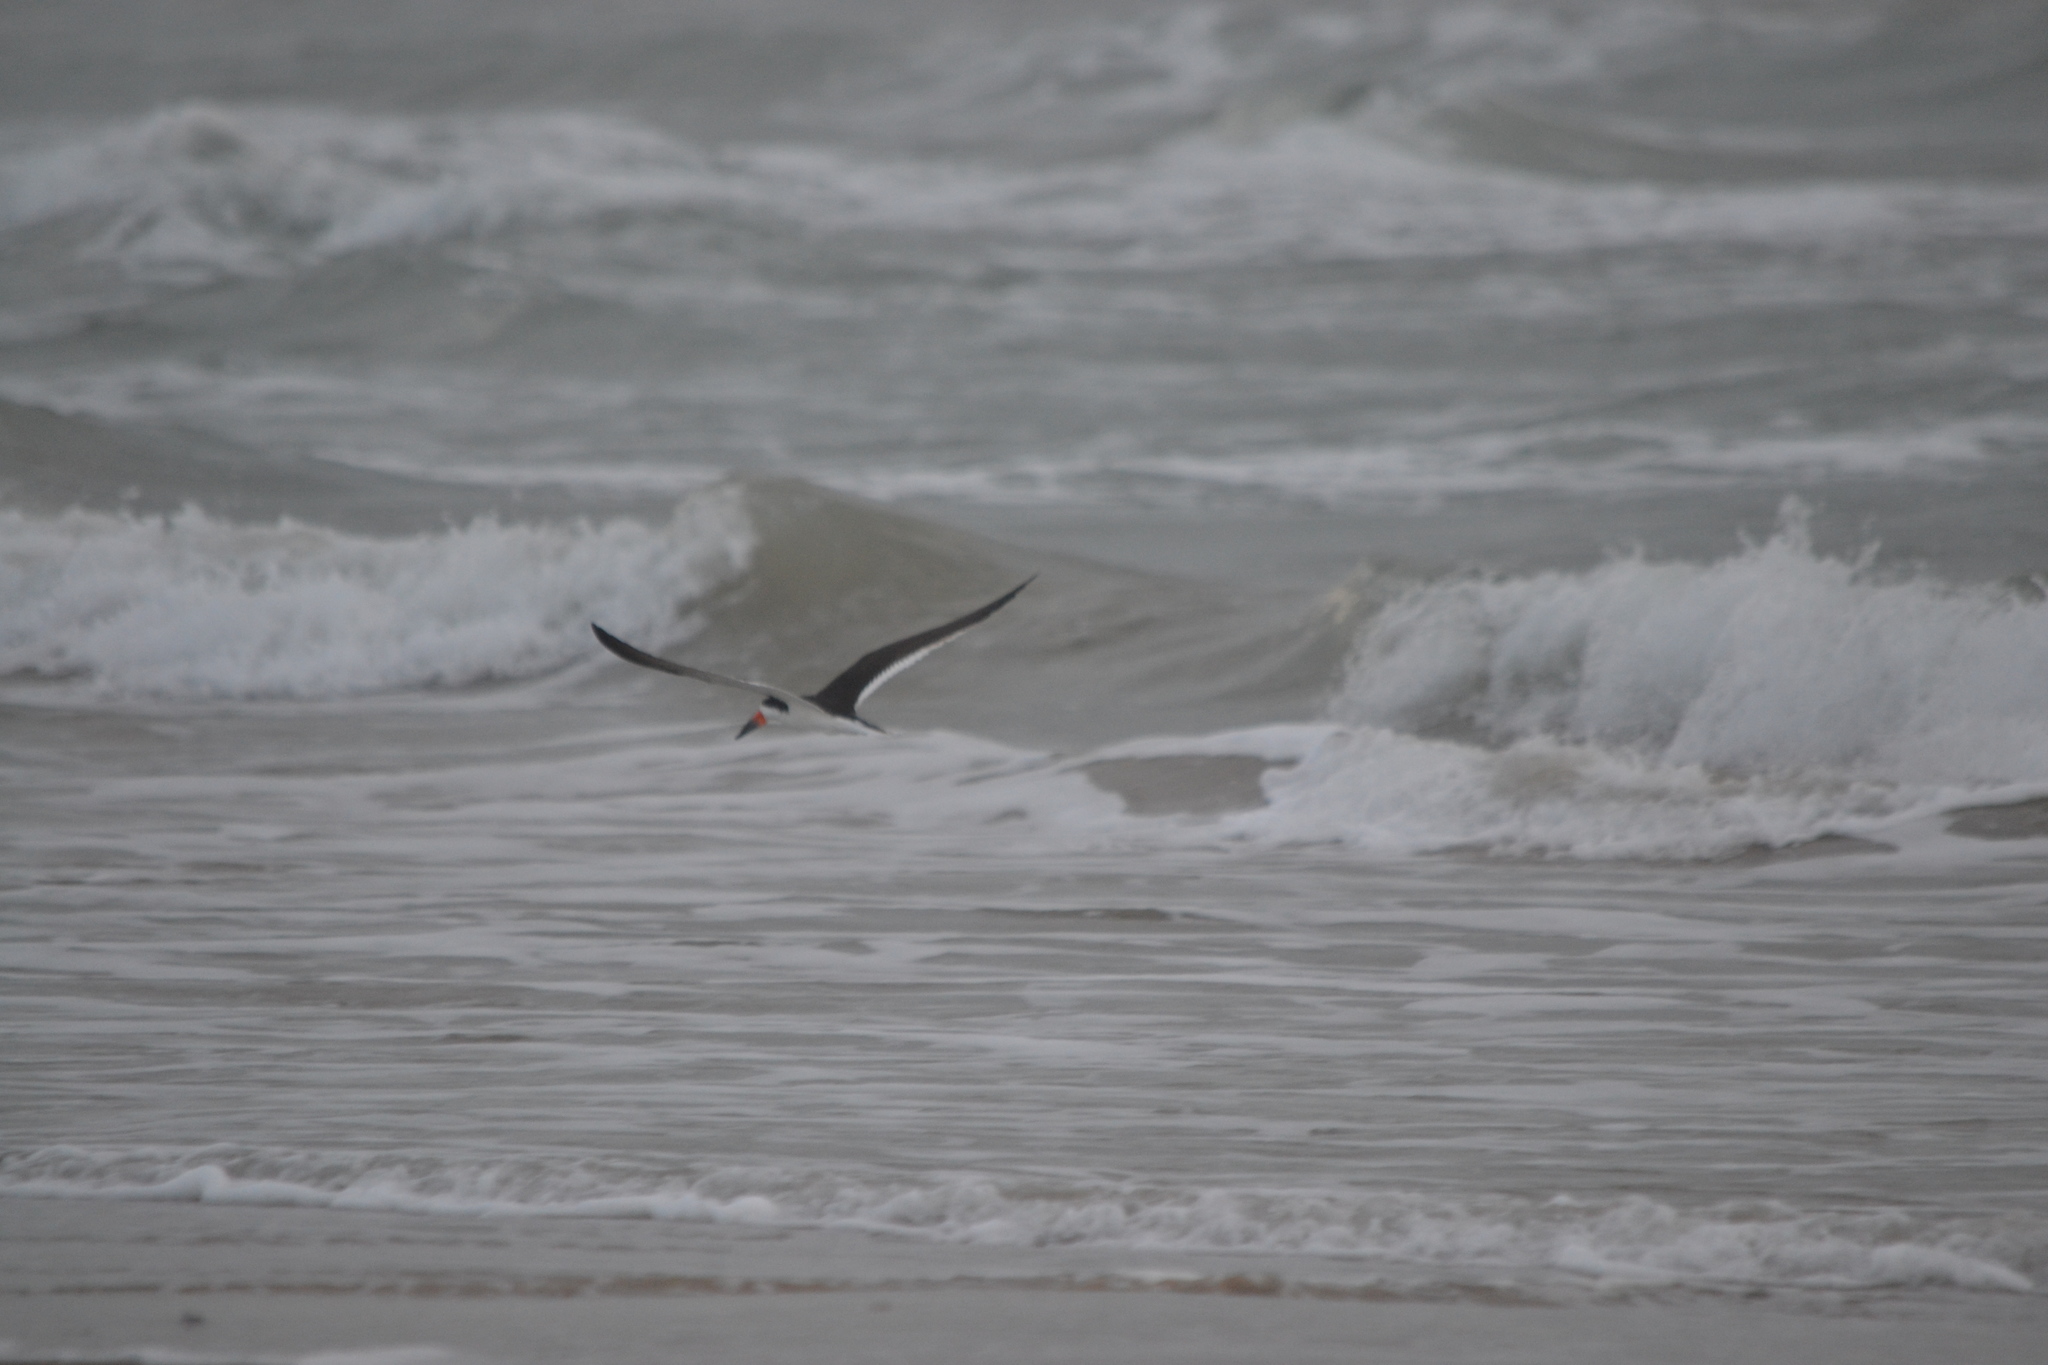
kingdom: Animalia
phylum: Chordata
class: Aves
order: Charadriiformes
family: Laridae
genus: Rynchops
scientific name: Rynchops niger
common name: Black skimmer
